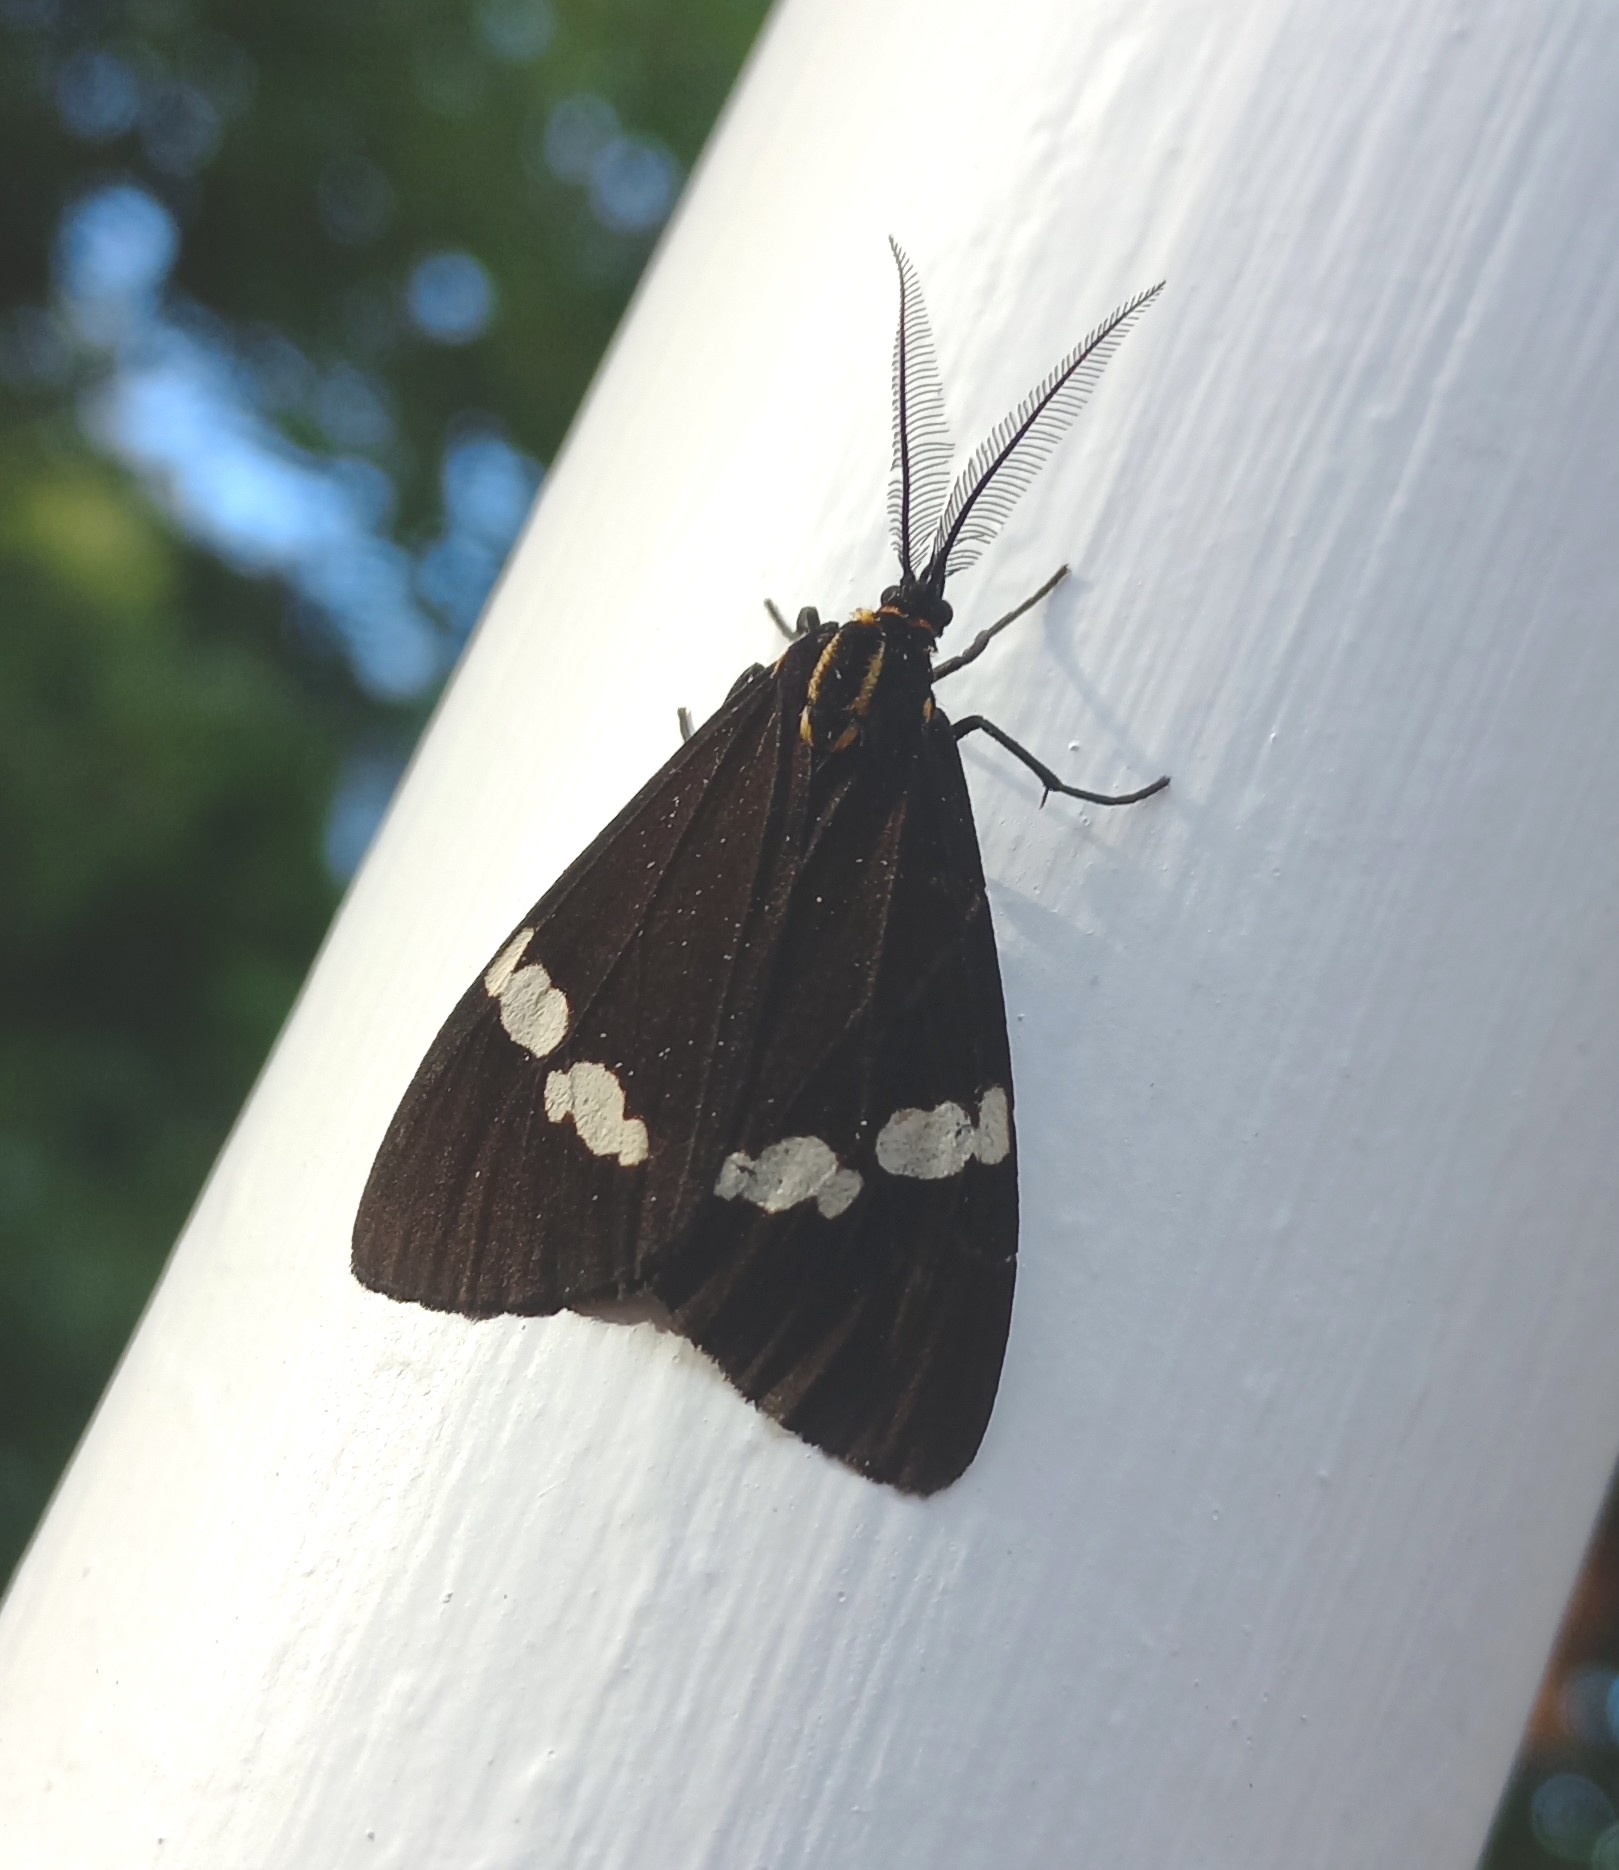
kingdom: Animalia
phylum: Arthropoda
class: Insecta
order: Lepidoptera
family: Erebidae
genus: Nyctemera
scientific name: Nyctemera annulatum
